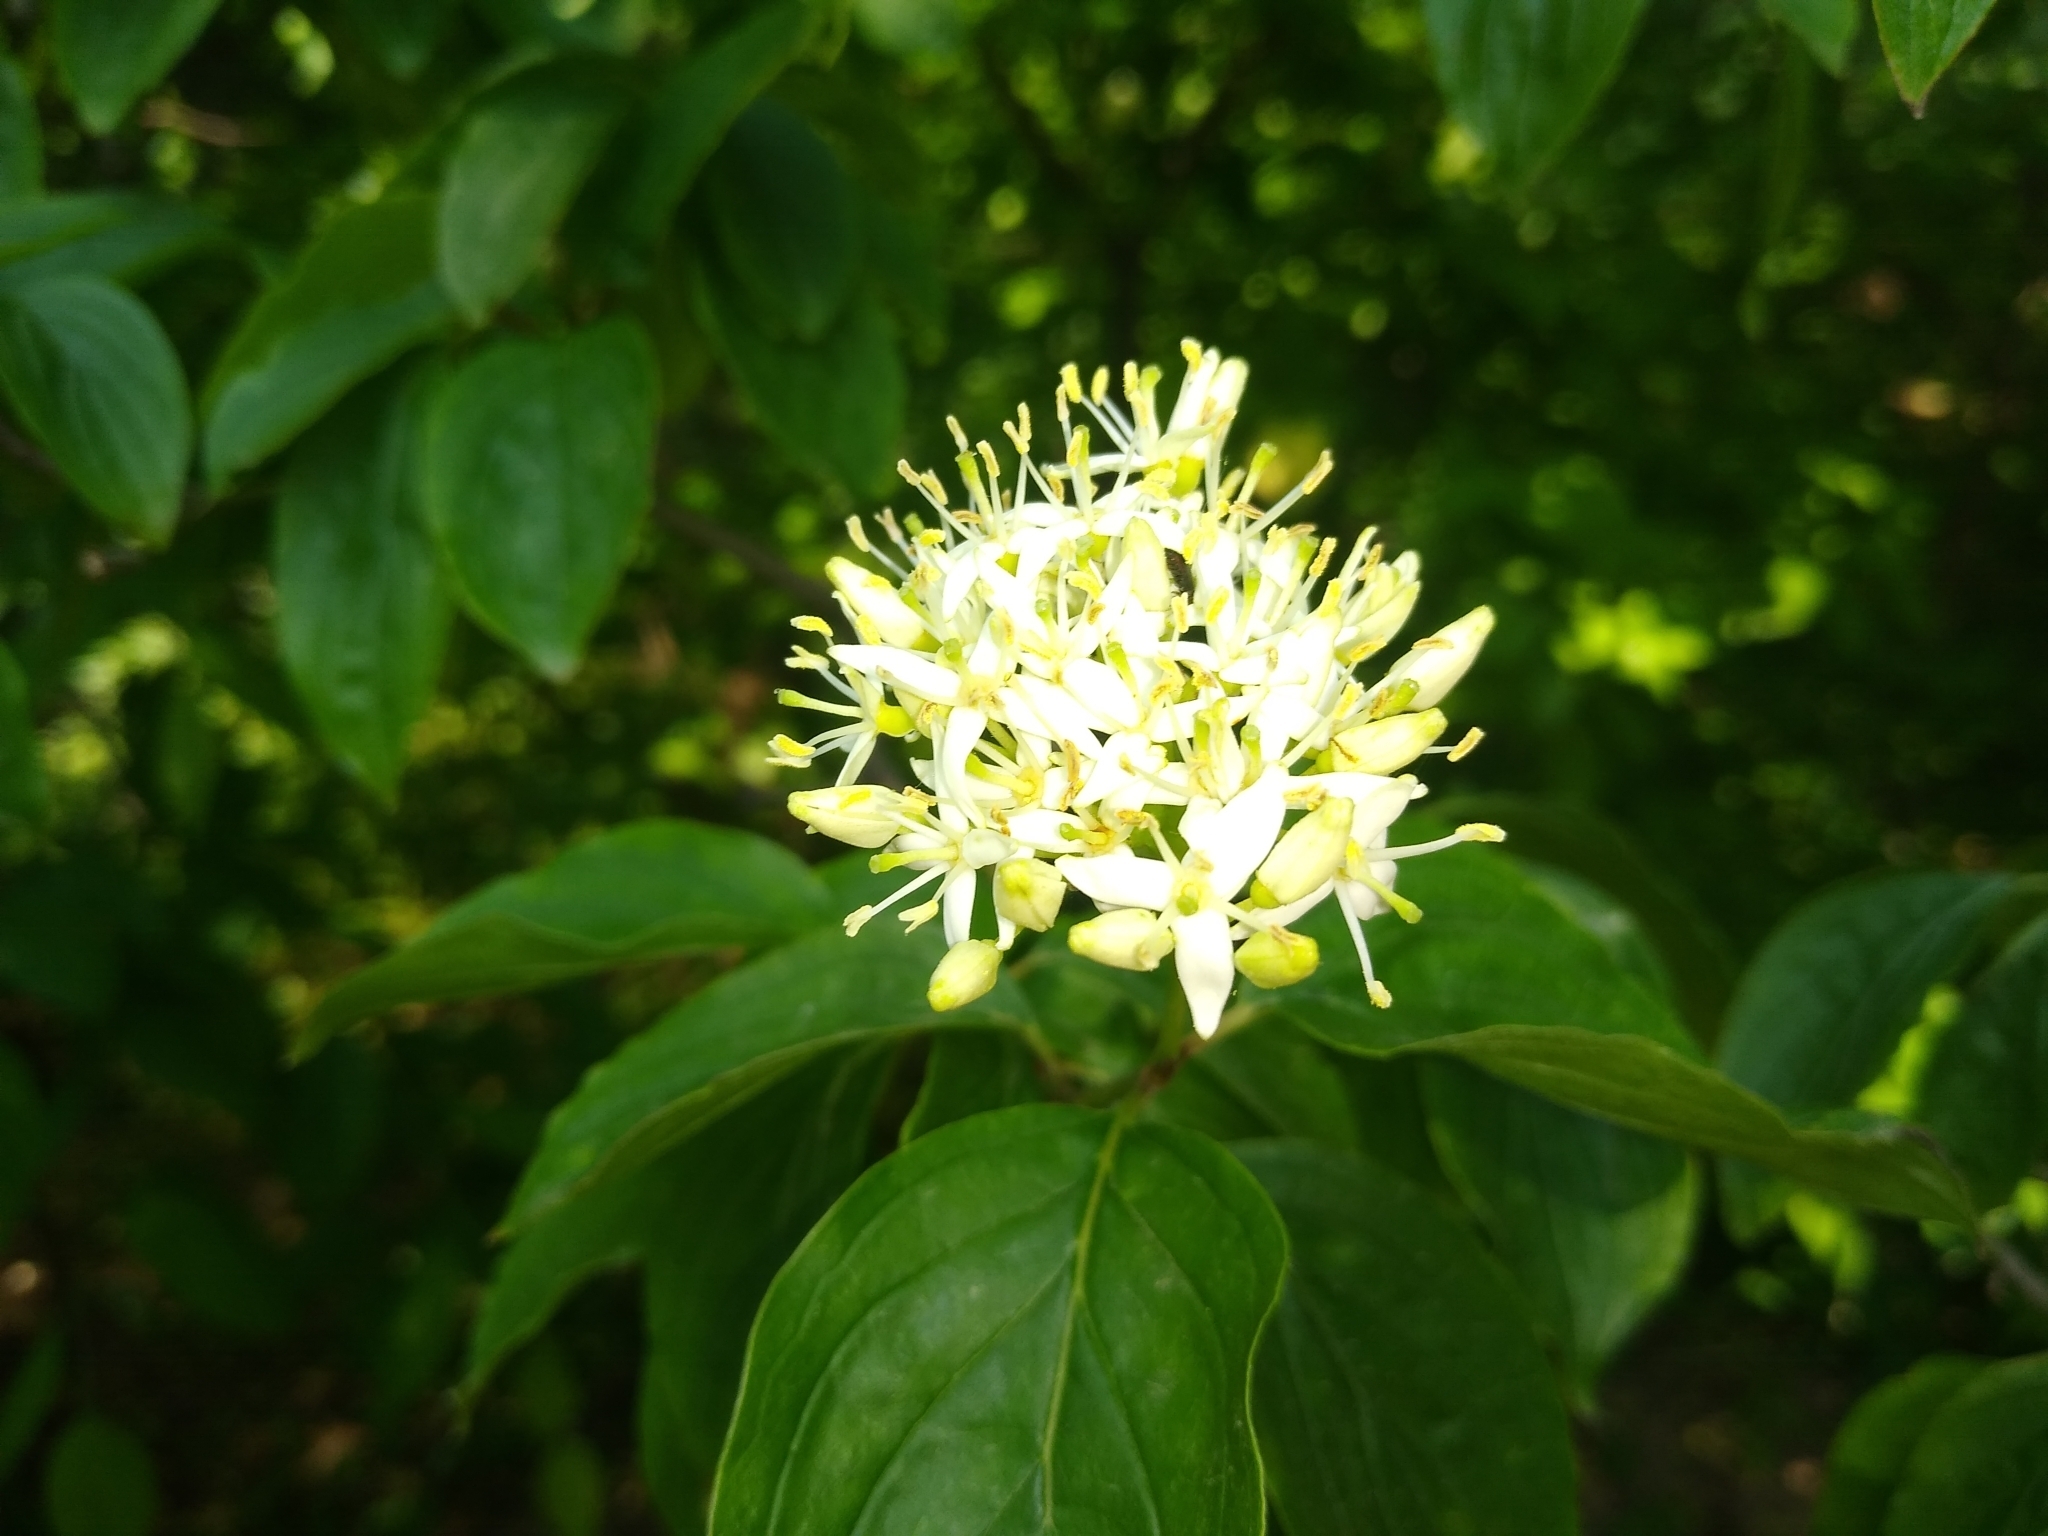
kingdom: Plantae
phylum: Tracheophyta
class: Magnoliopsida
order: Cornales
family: Cornaceae
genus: Cornus
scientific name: Cornus sanguinea
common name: Dogwood
